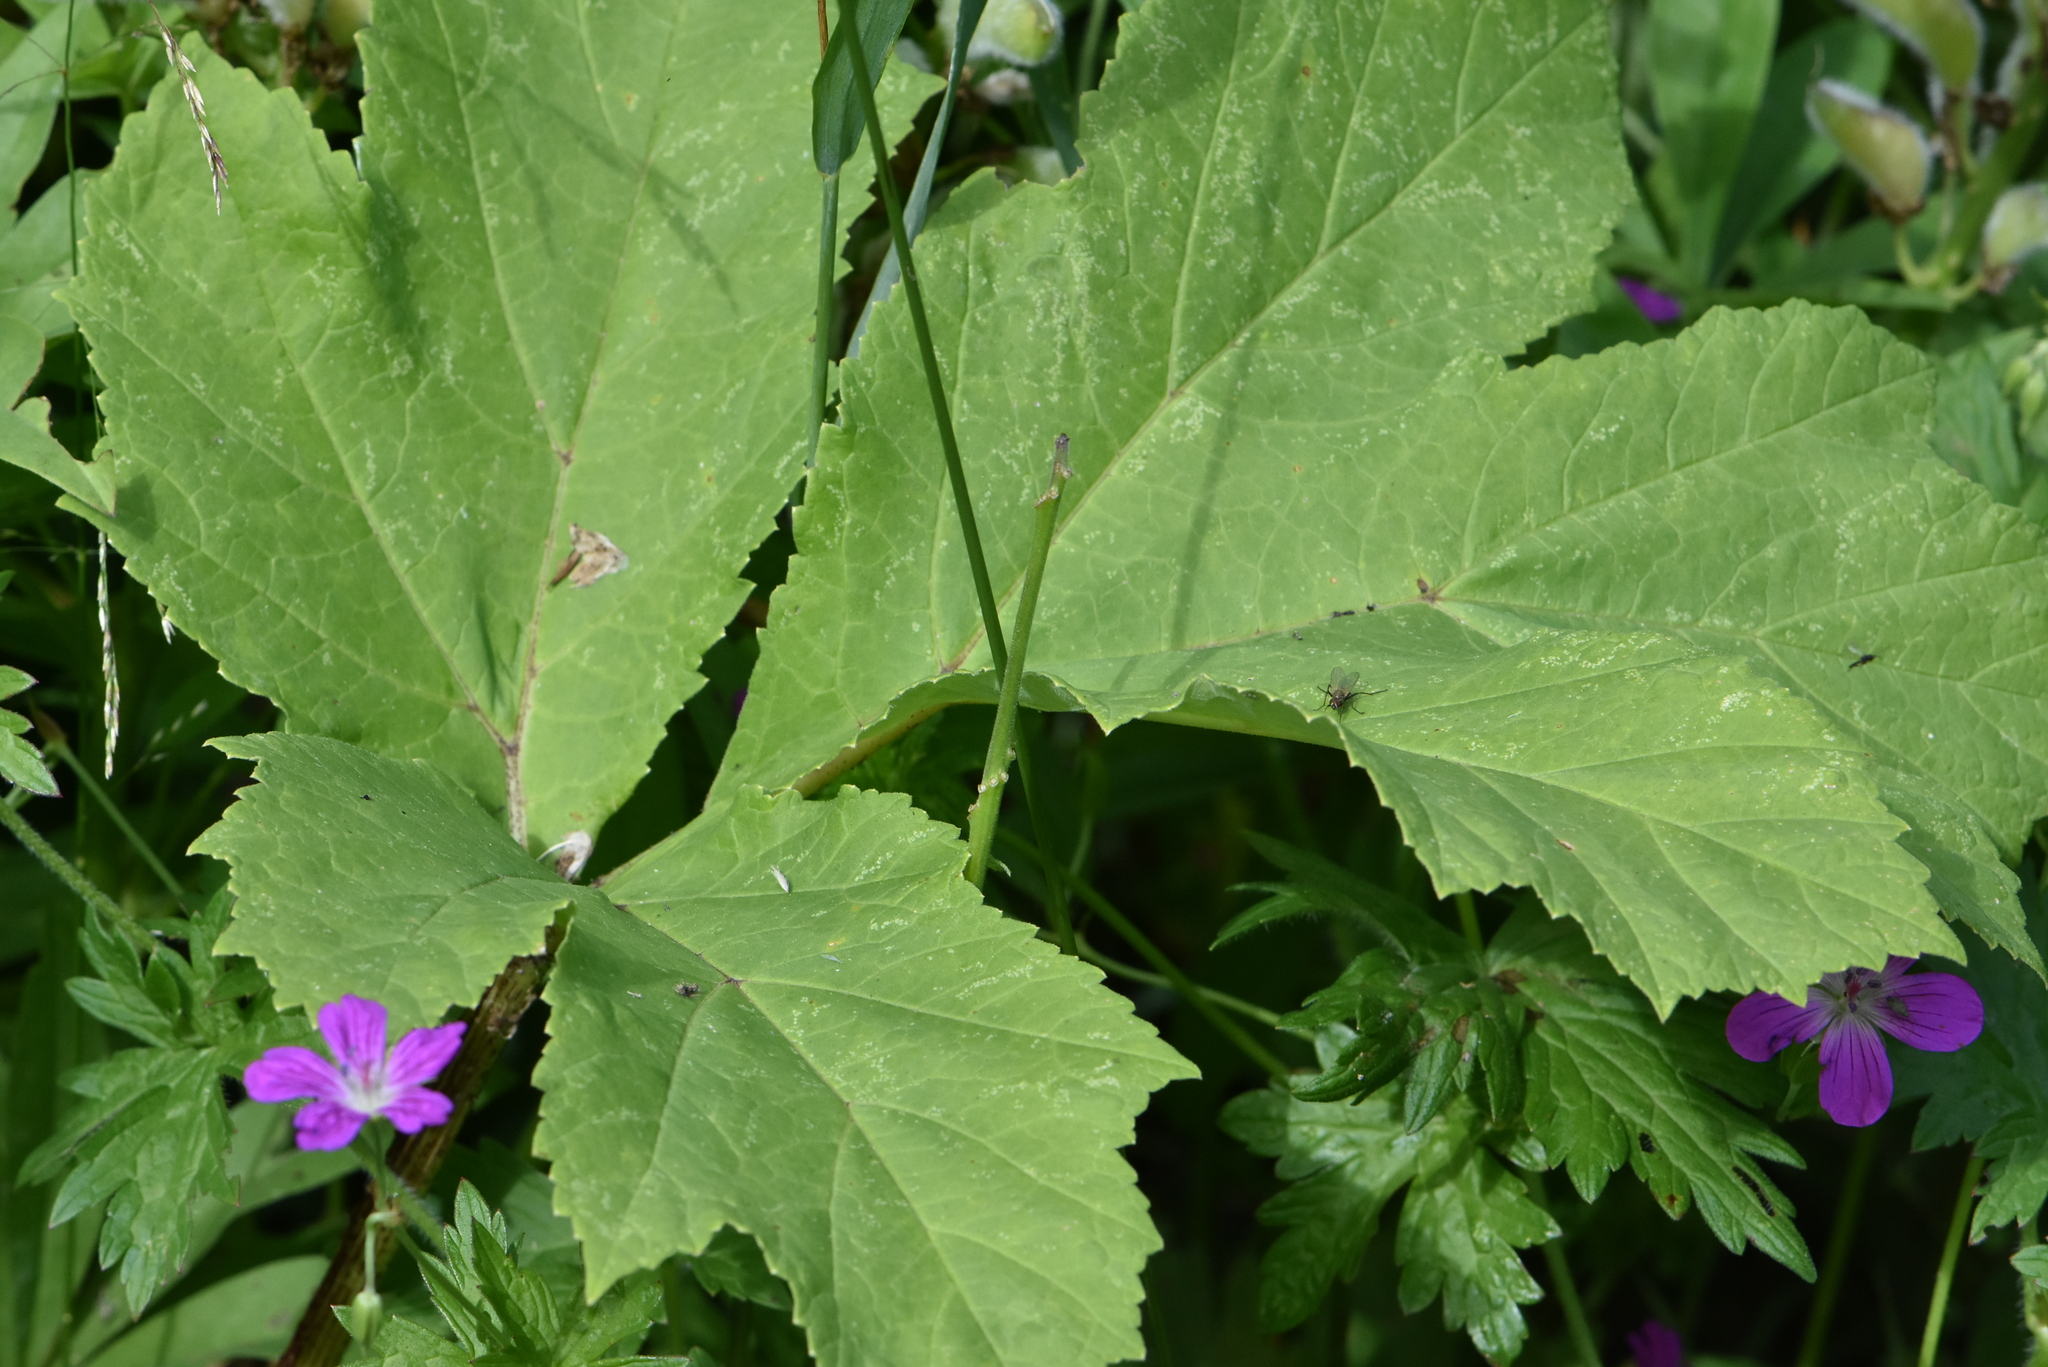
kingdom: Plantae
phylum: Tracheophyta
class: Magnoliopsida
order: Apiales
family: Apiaceae
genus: Heracleum
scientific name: Heracleum sosnowskyi
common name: Sosnowsky's hogweed
